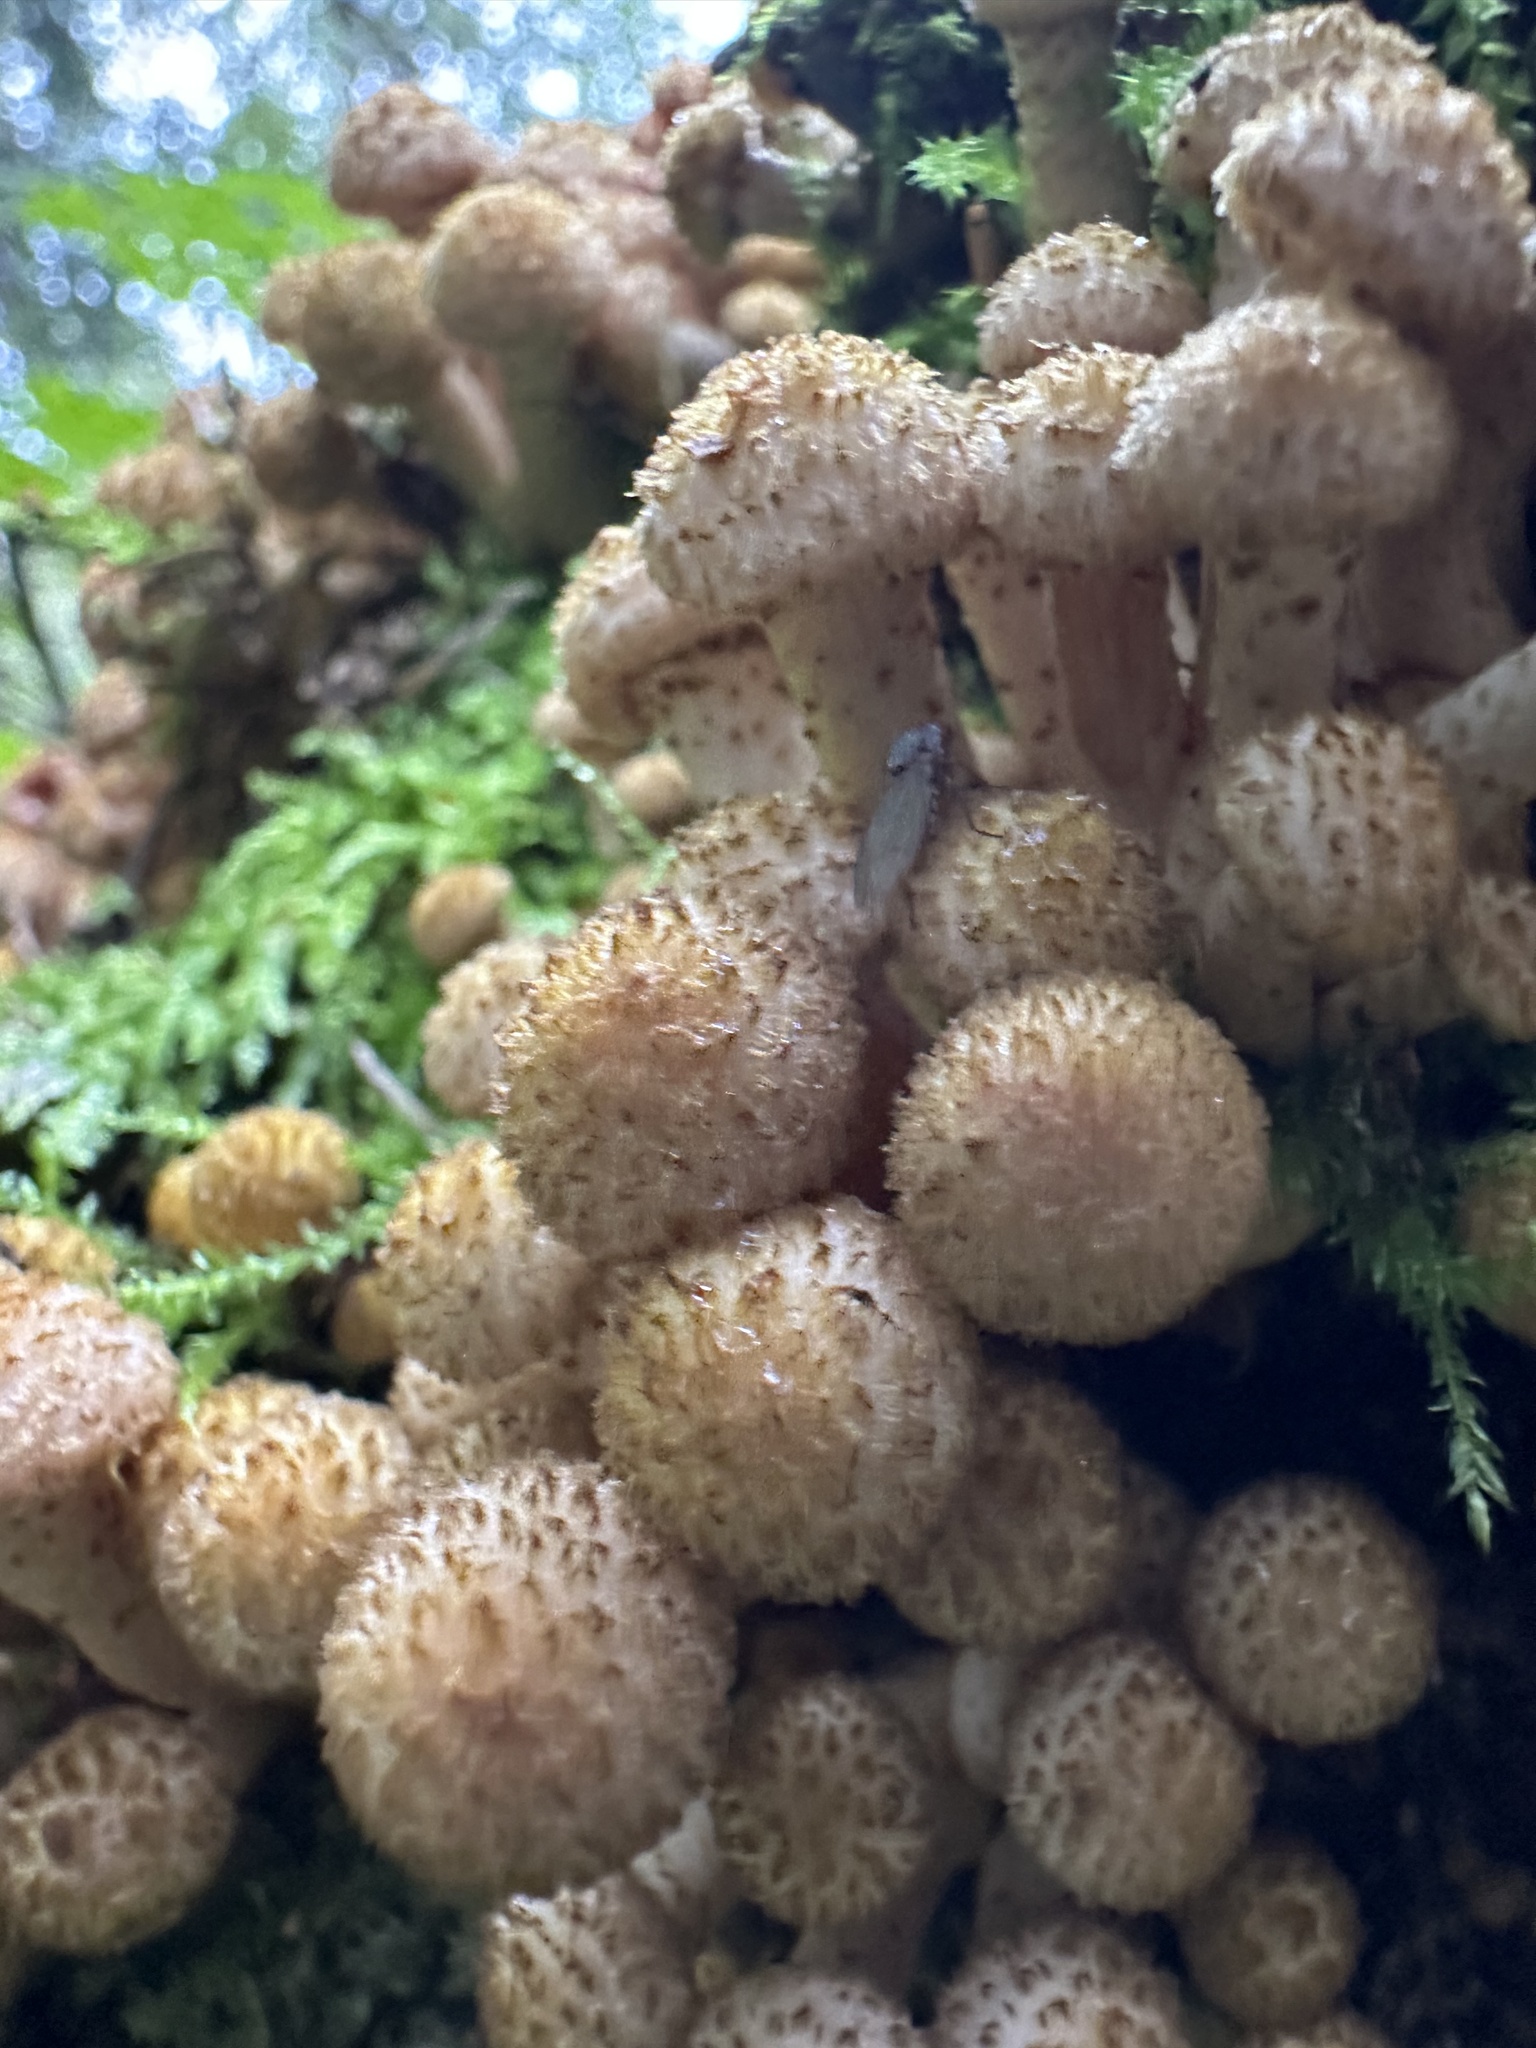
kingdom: Fungi
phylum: Basidiomycota
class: Agaricomycetes
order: Agaricales
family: Strophariaceae
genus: Pholiota
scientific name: Pholiota squarrosa
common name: Shaggy pholiota
